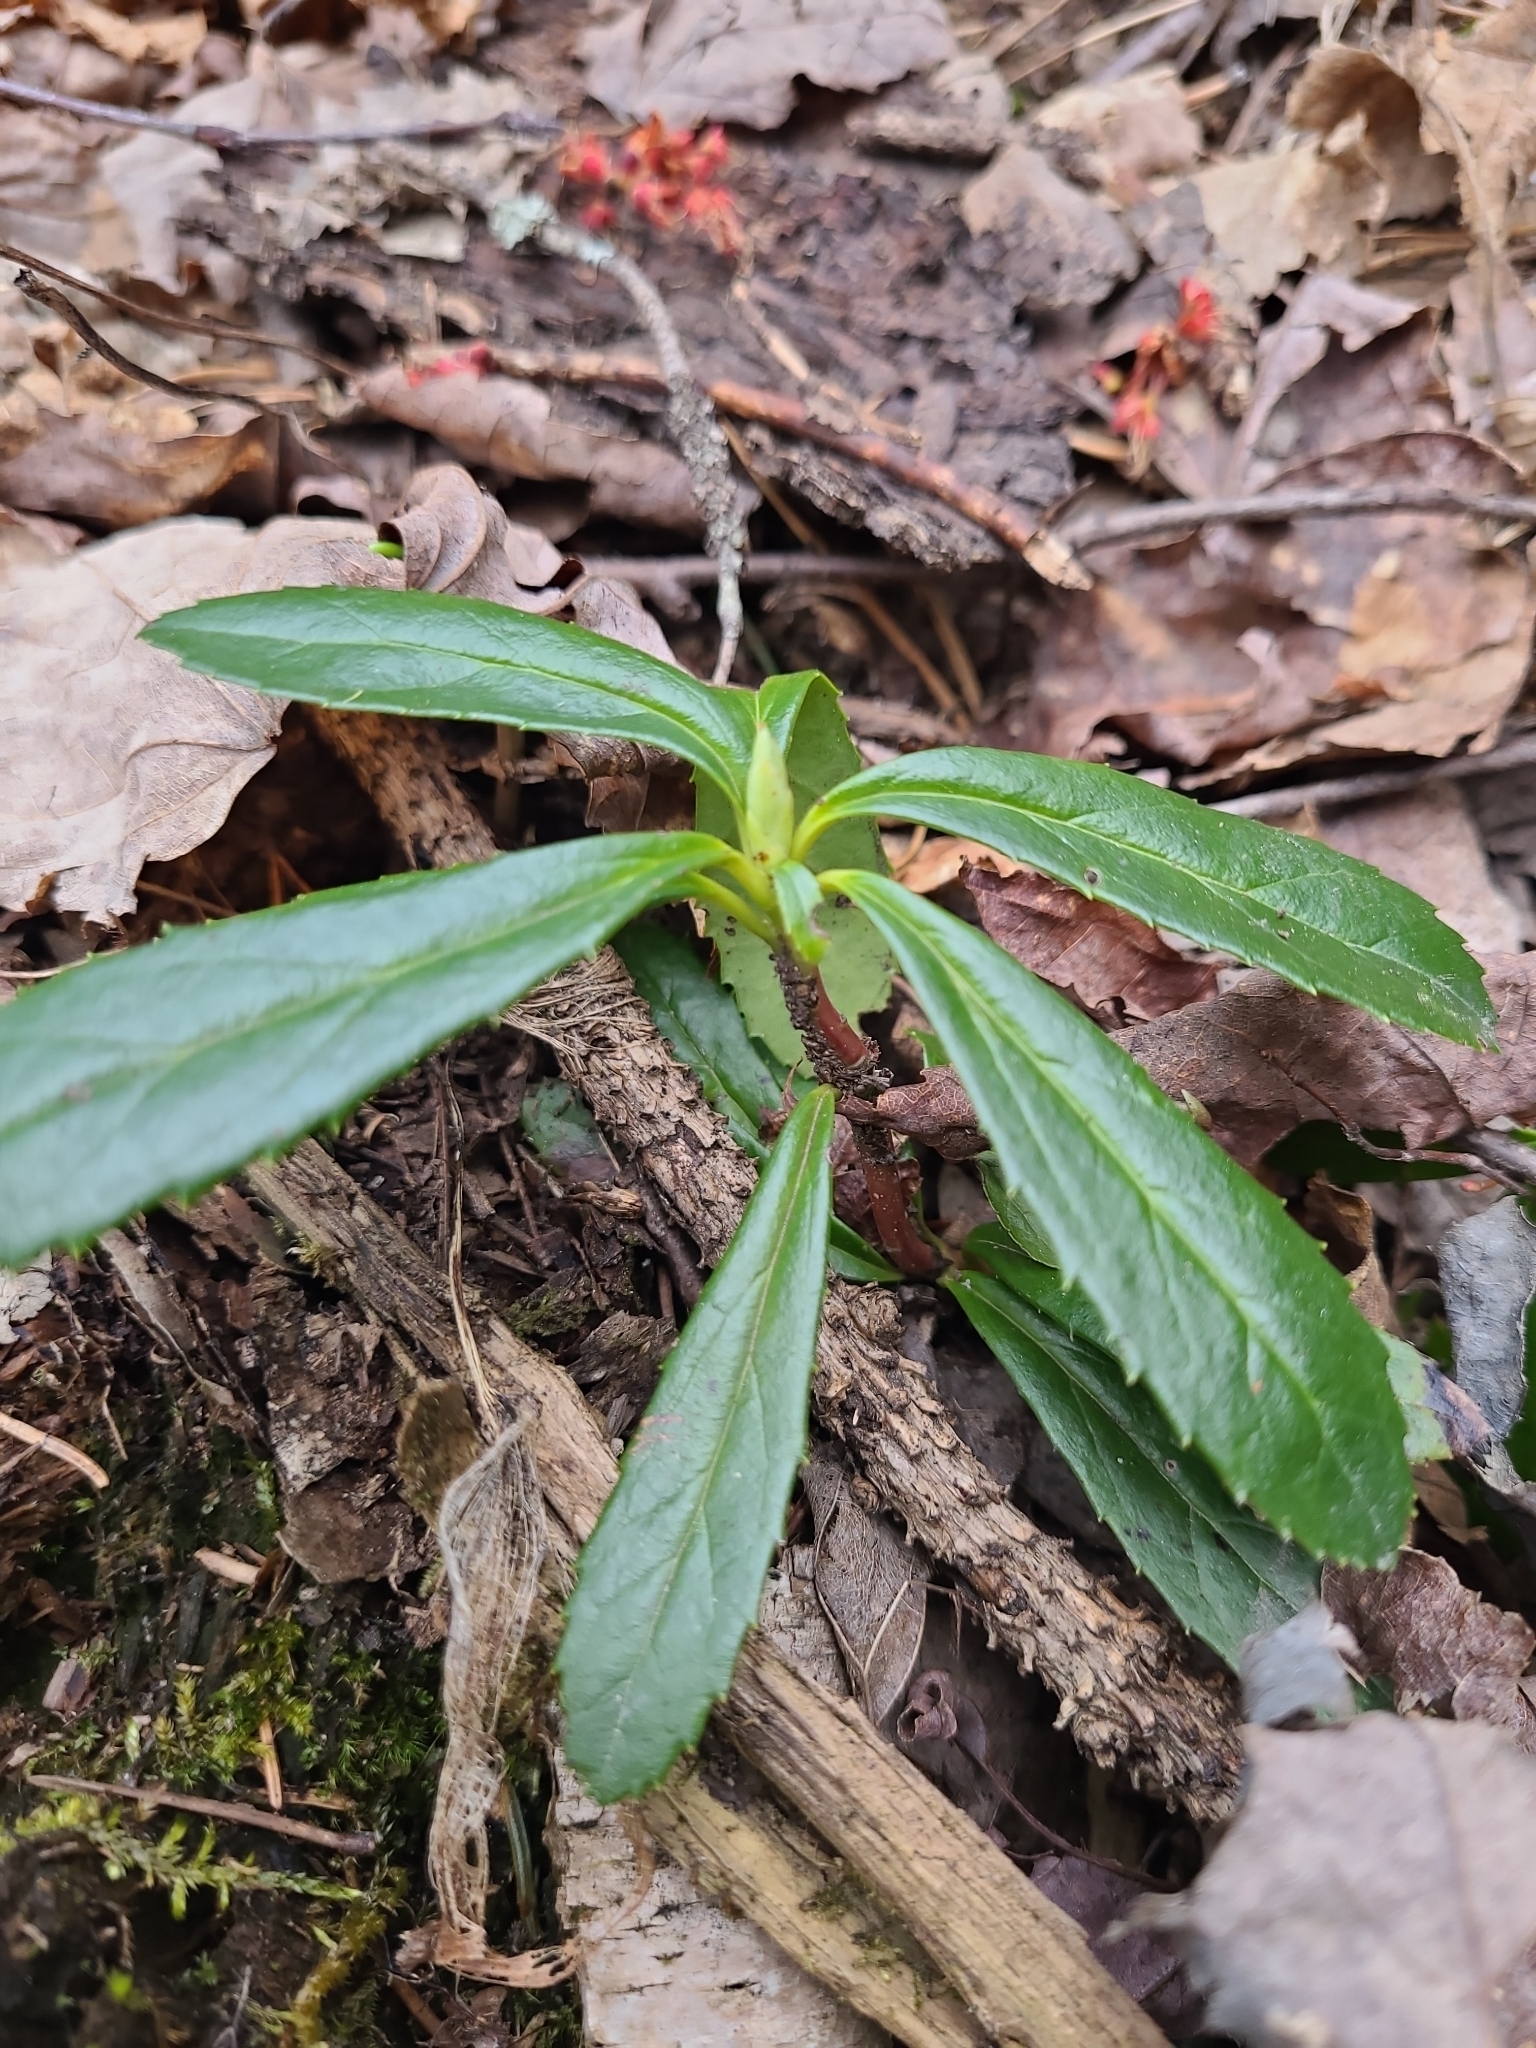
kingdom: Plantae
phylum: Tracheophyta
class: Magnoliopsida
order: Ericales
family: Ericaceae
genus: Chimaphila
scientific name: Chimaphila umbellata
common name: Pipsissewa
